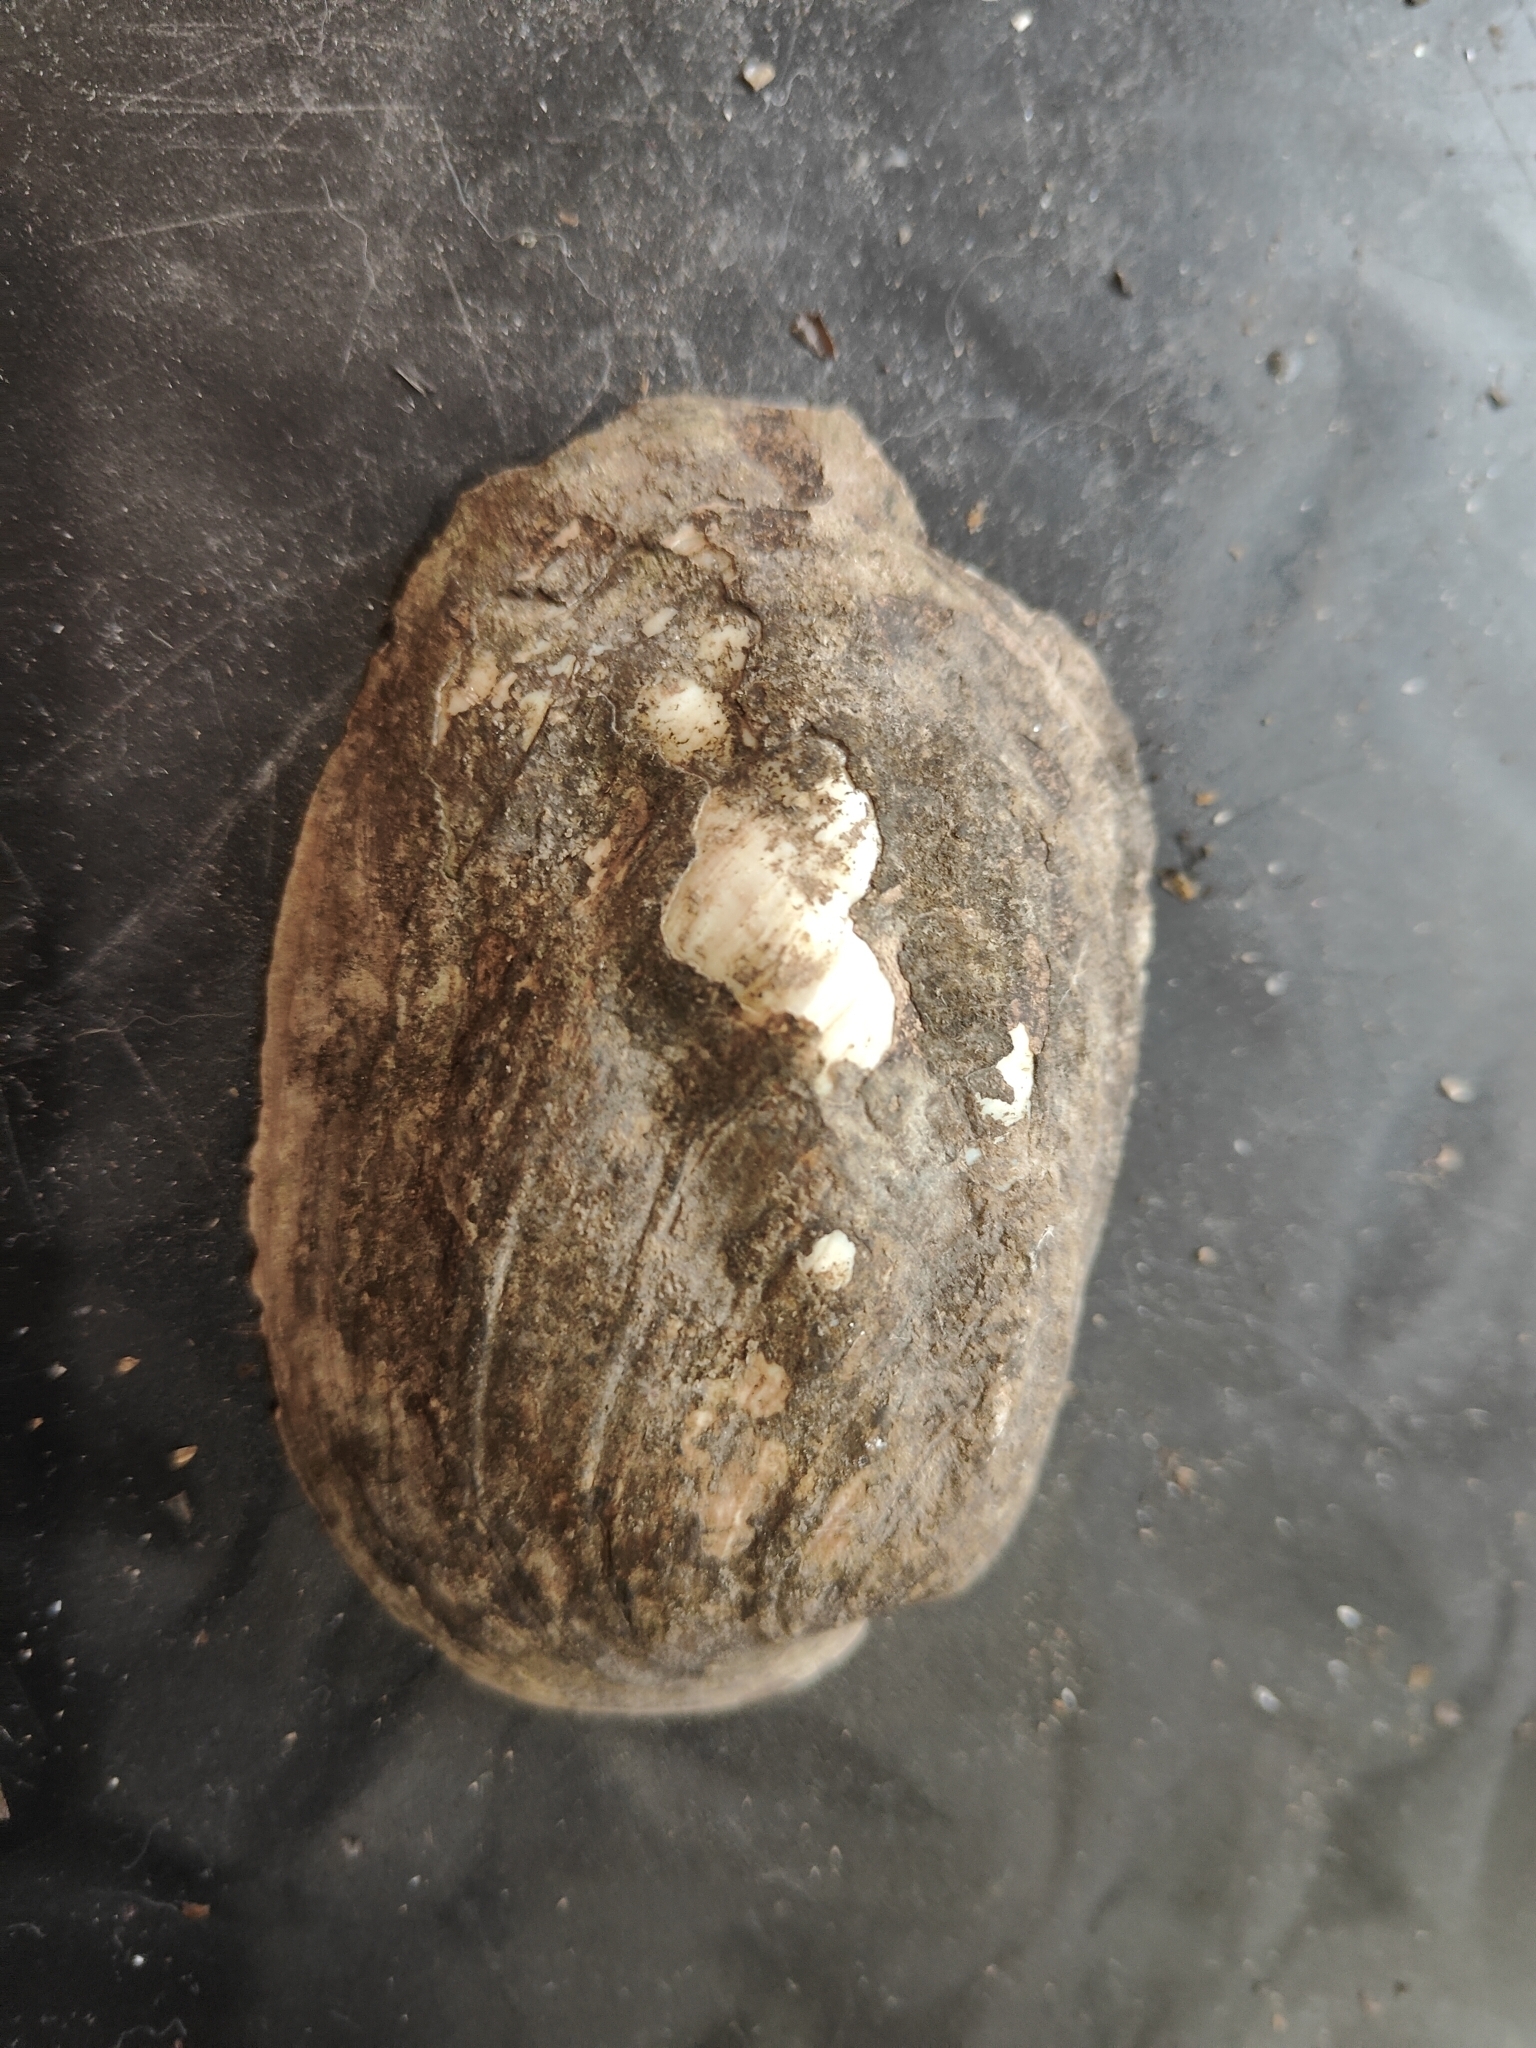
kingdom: Animalia
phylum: Mollusca
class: Bivalvia
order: Unionida
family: Unionidae
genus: Amblema
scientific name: Amblema plicata
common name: Threeridge
